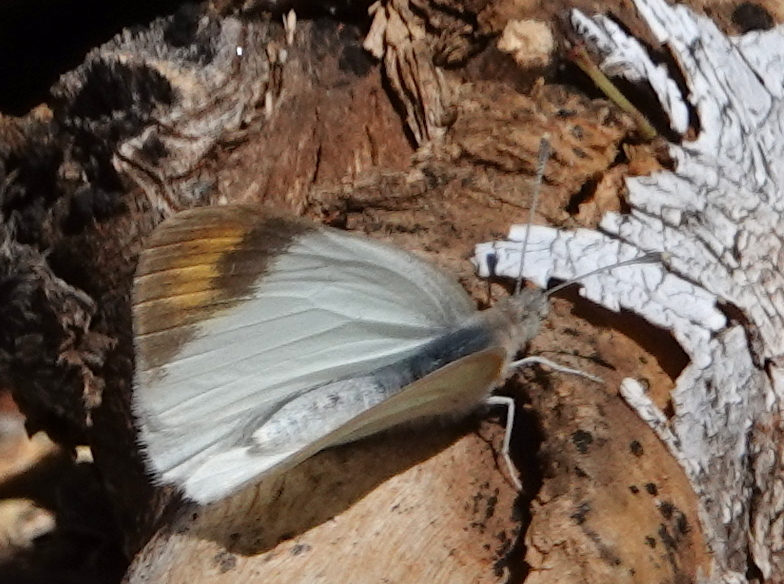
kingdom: Animalia
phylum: Arthropoda
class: Insecta
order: Lepidoptera
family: Pieridae
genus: Colotis
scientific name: Colotis subfasciatus
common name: Lemon traveller tip
